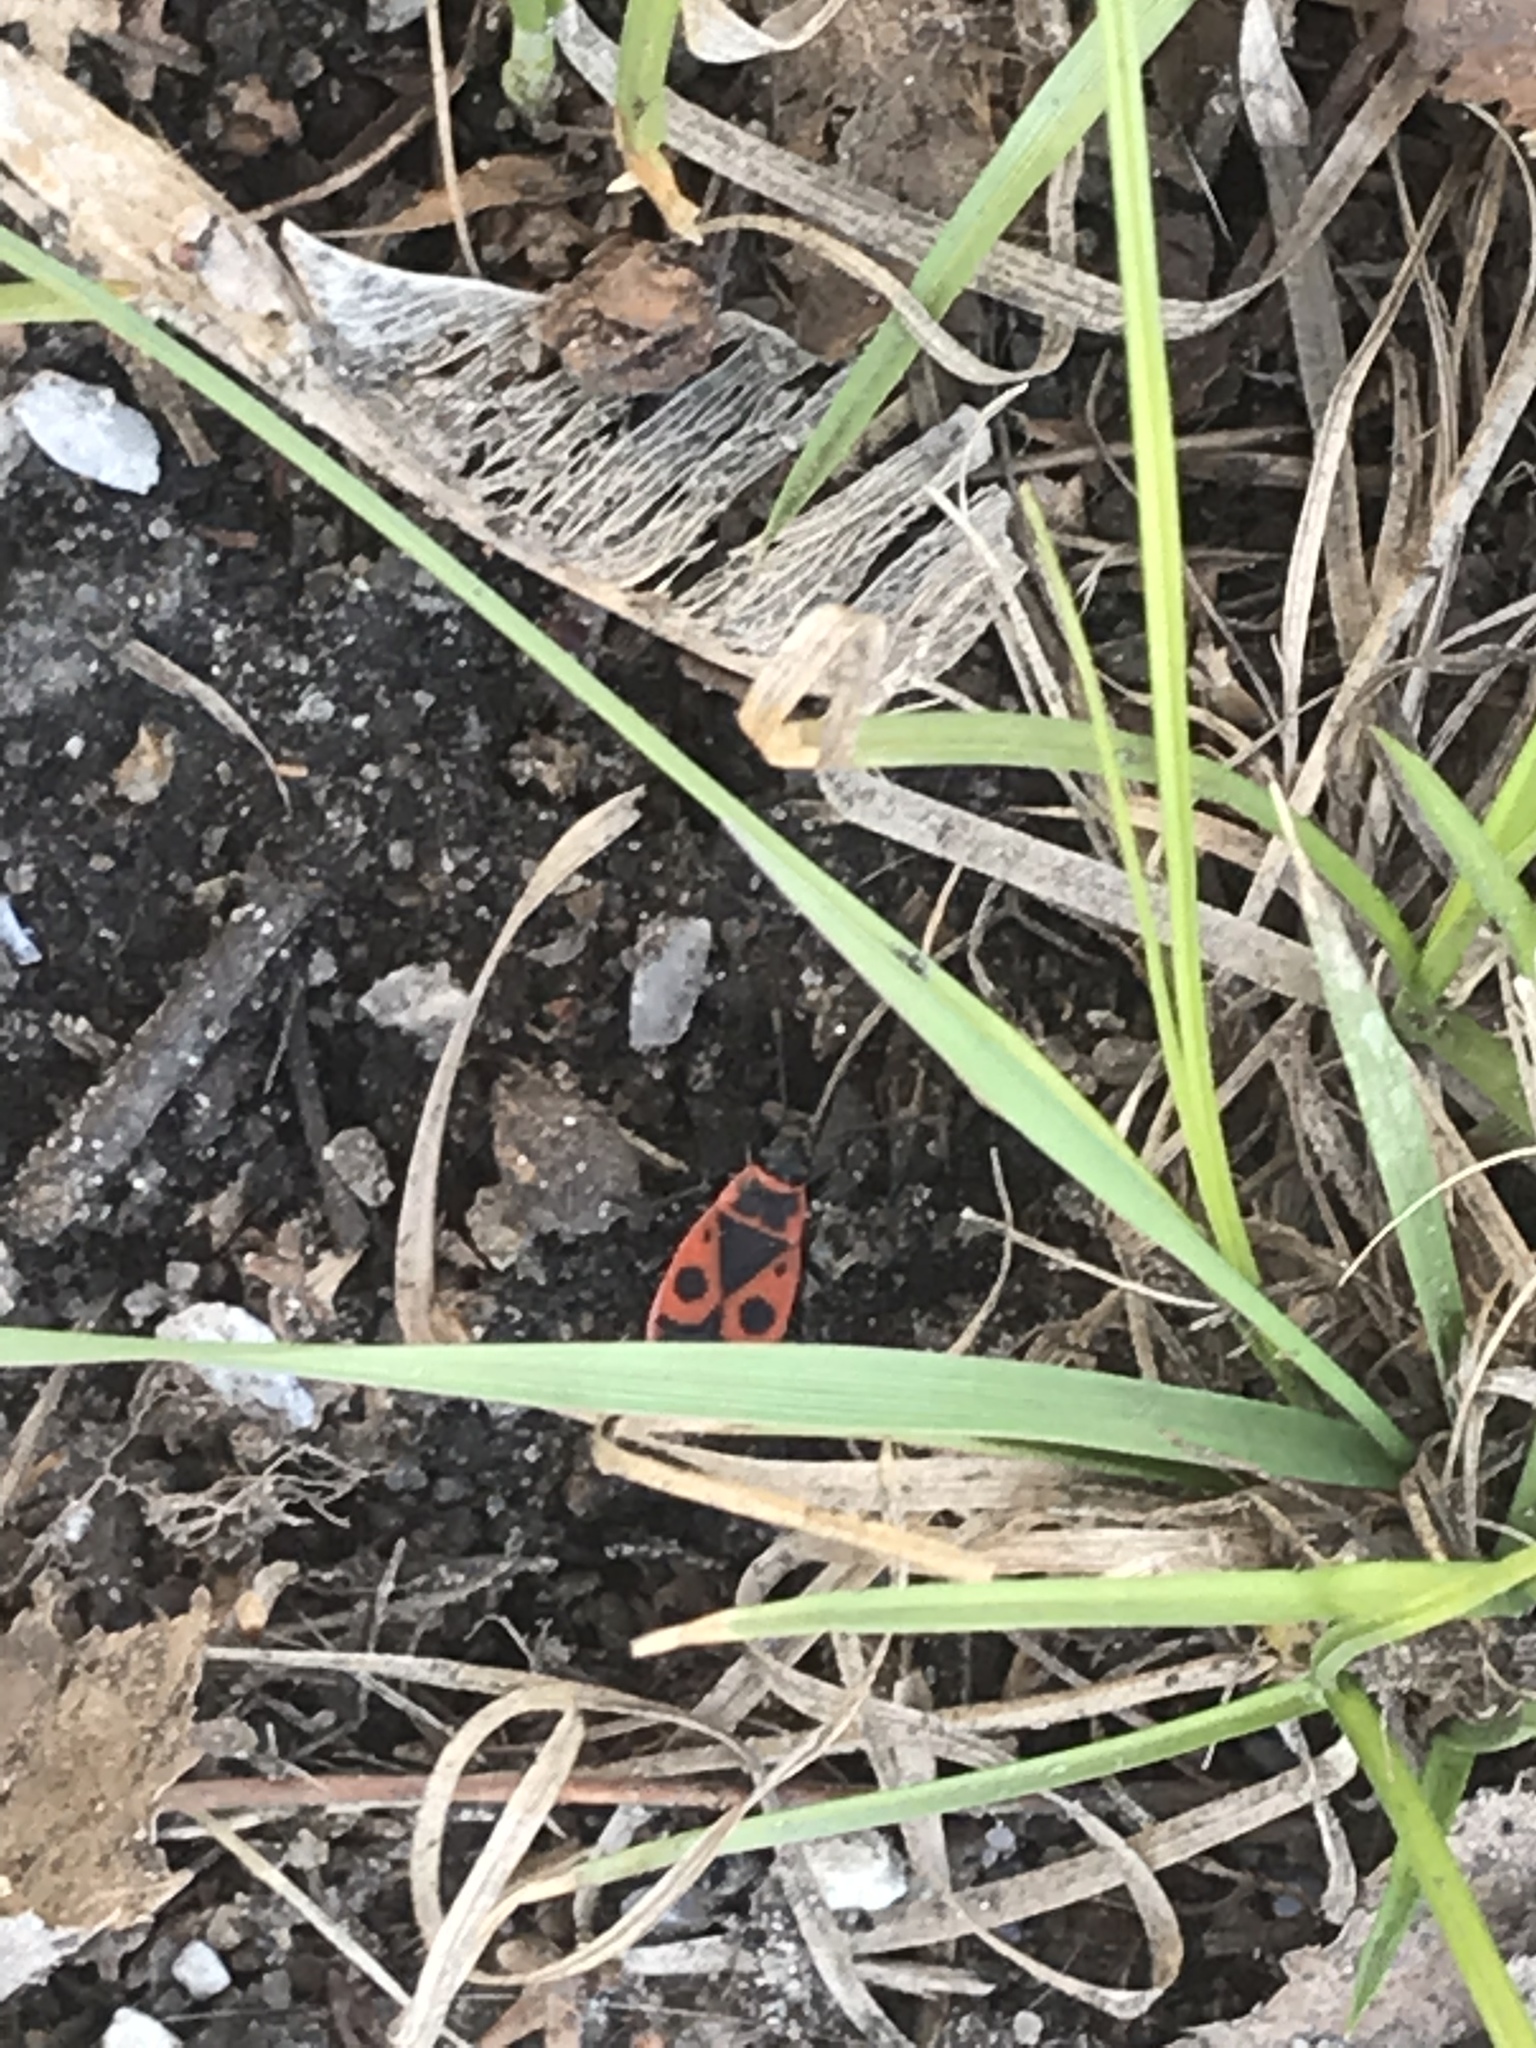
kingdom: Animalia
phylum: Arthropoda
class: Insecta
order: Hemiptera
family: Pyrrhocoridae
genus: Pyrrhocoris
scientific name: Pyrrhocoris apterus
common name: Firebug
